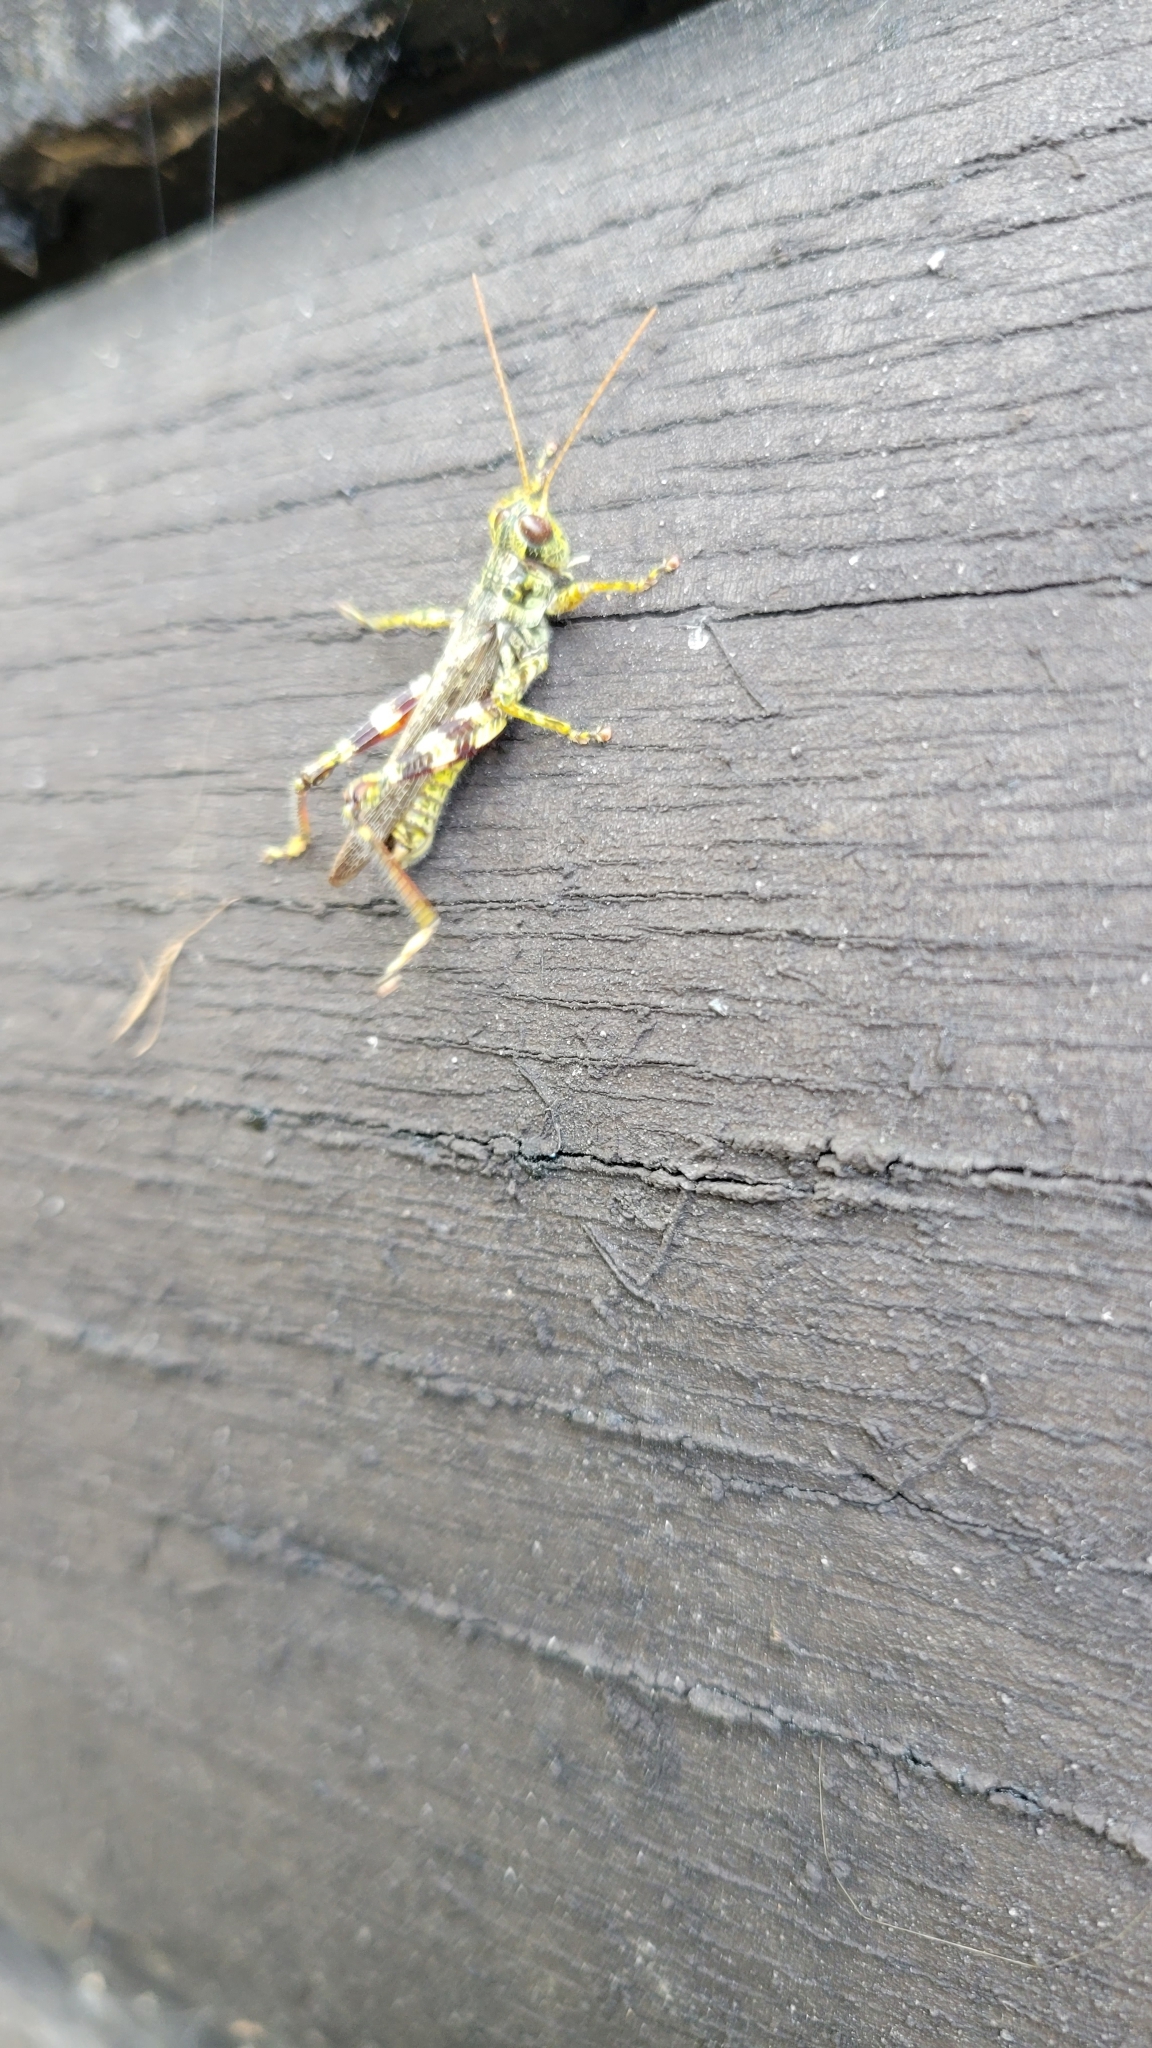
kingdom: Animalia
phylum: Arthropoda
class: Insecta
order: Orthoptera
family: Acrididae
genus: Melanoplus
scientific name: Melanoplus punctulatus
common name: Pine-tree spur-throat grasshopper
